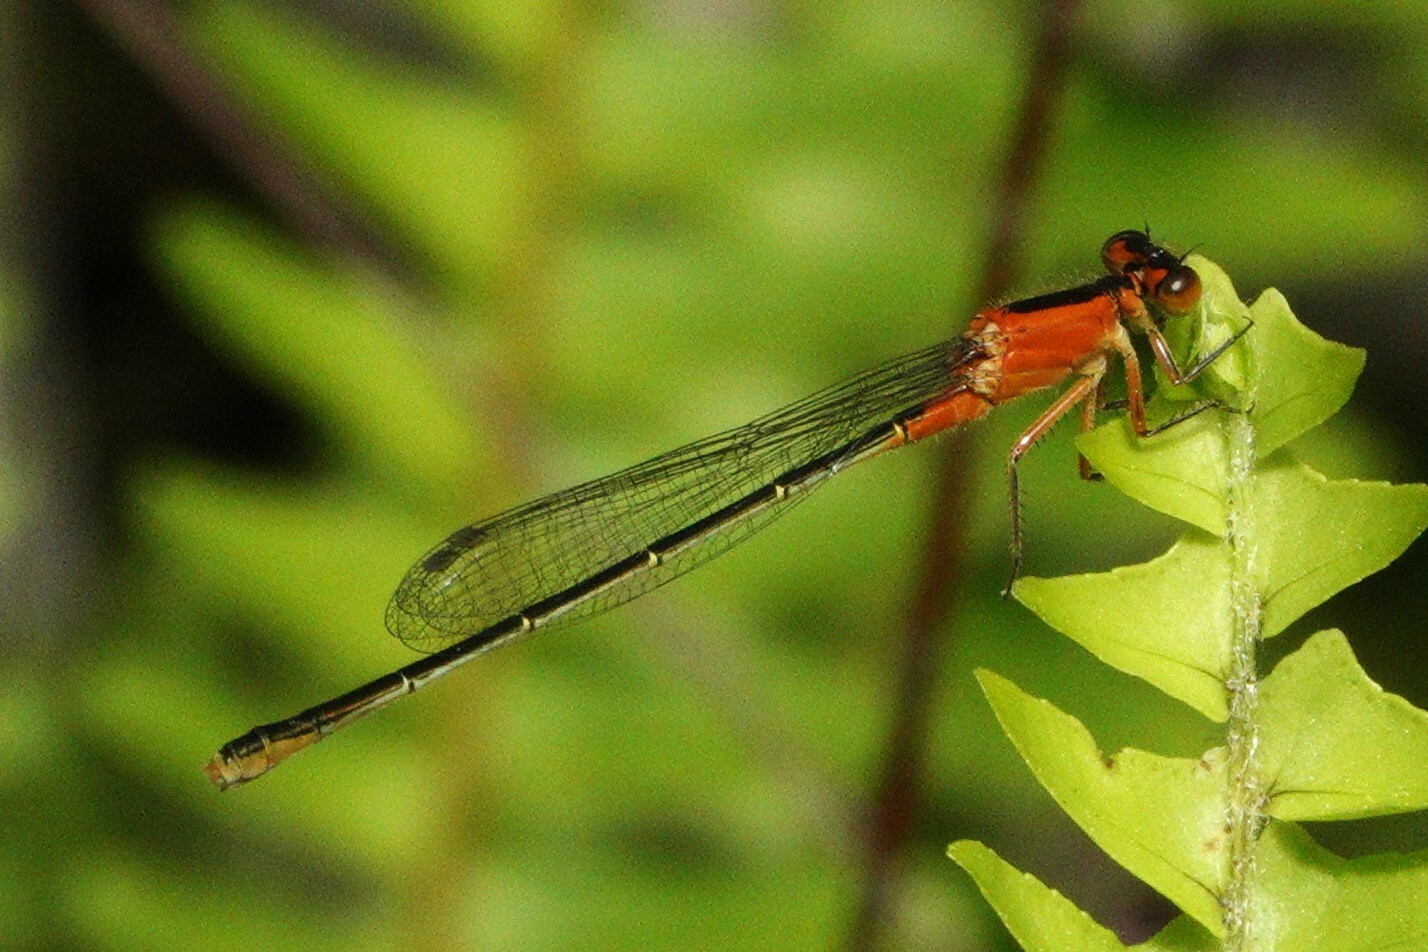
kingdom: Animalia
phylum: Arthropoda
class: Insecta
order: Odonata
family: Coenagrionidae
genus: Ischnura
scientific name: Ischnura ramburii
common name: Rambur's forktail
